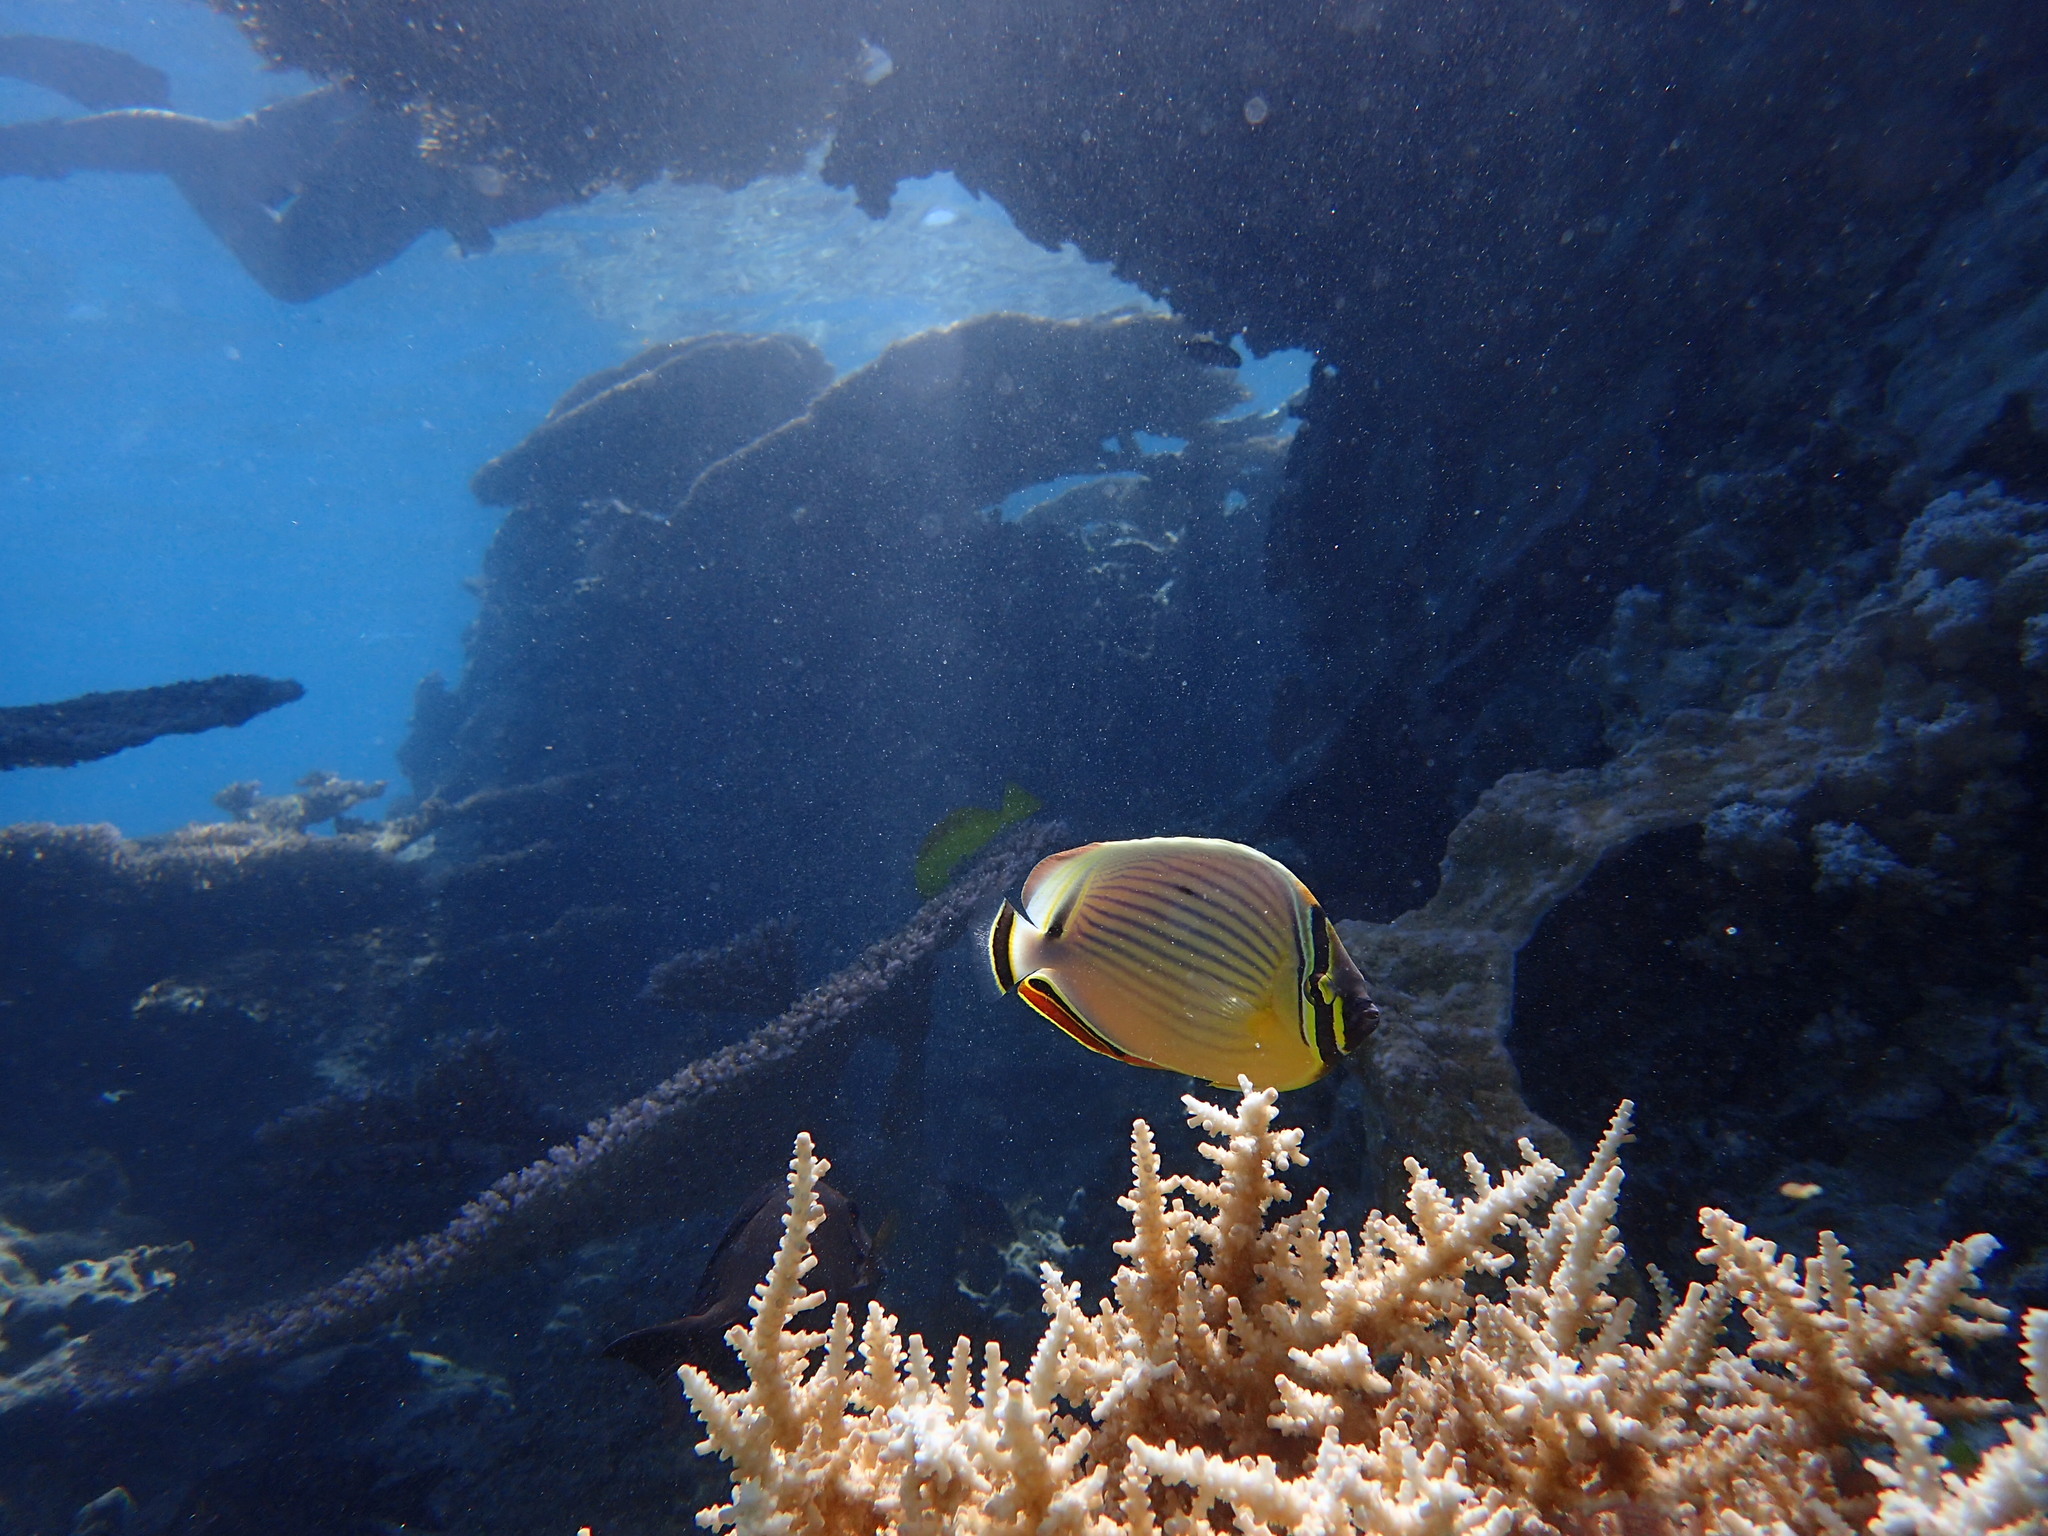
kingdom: Animalia
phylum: Chordata
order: Perciformes
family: Chaetodontidae
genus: Chaetodon
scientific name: Chaetodon lunulatus
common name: Redfin butterflyfish
